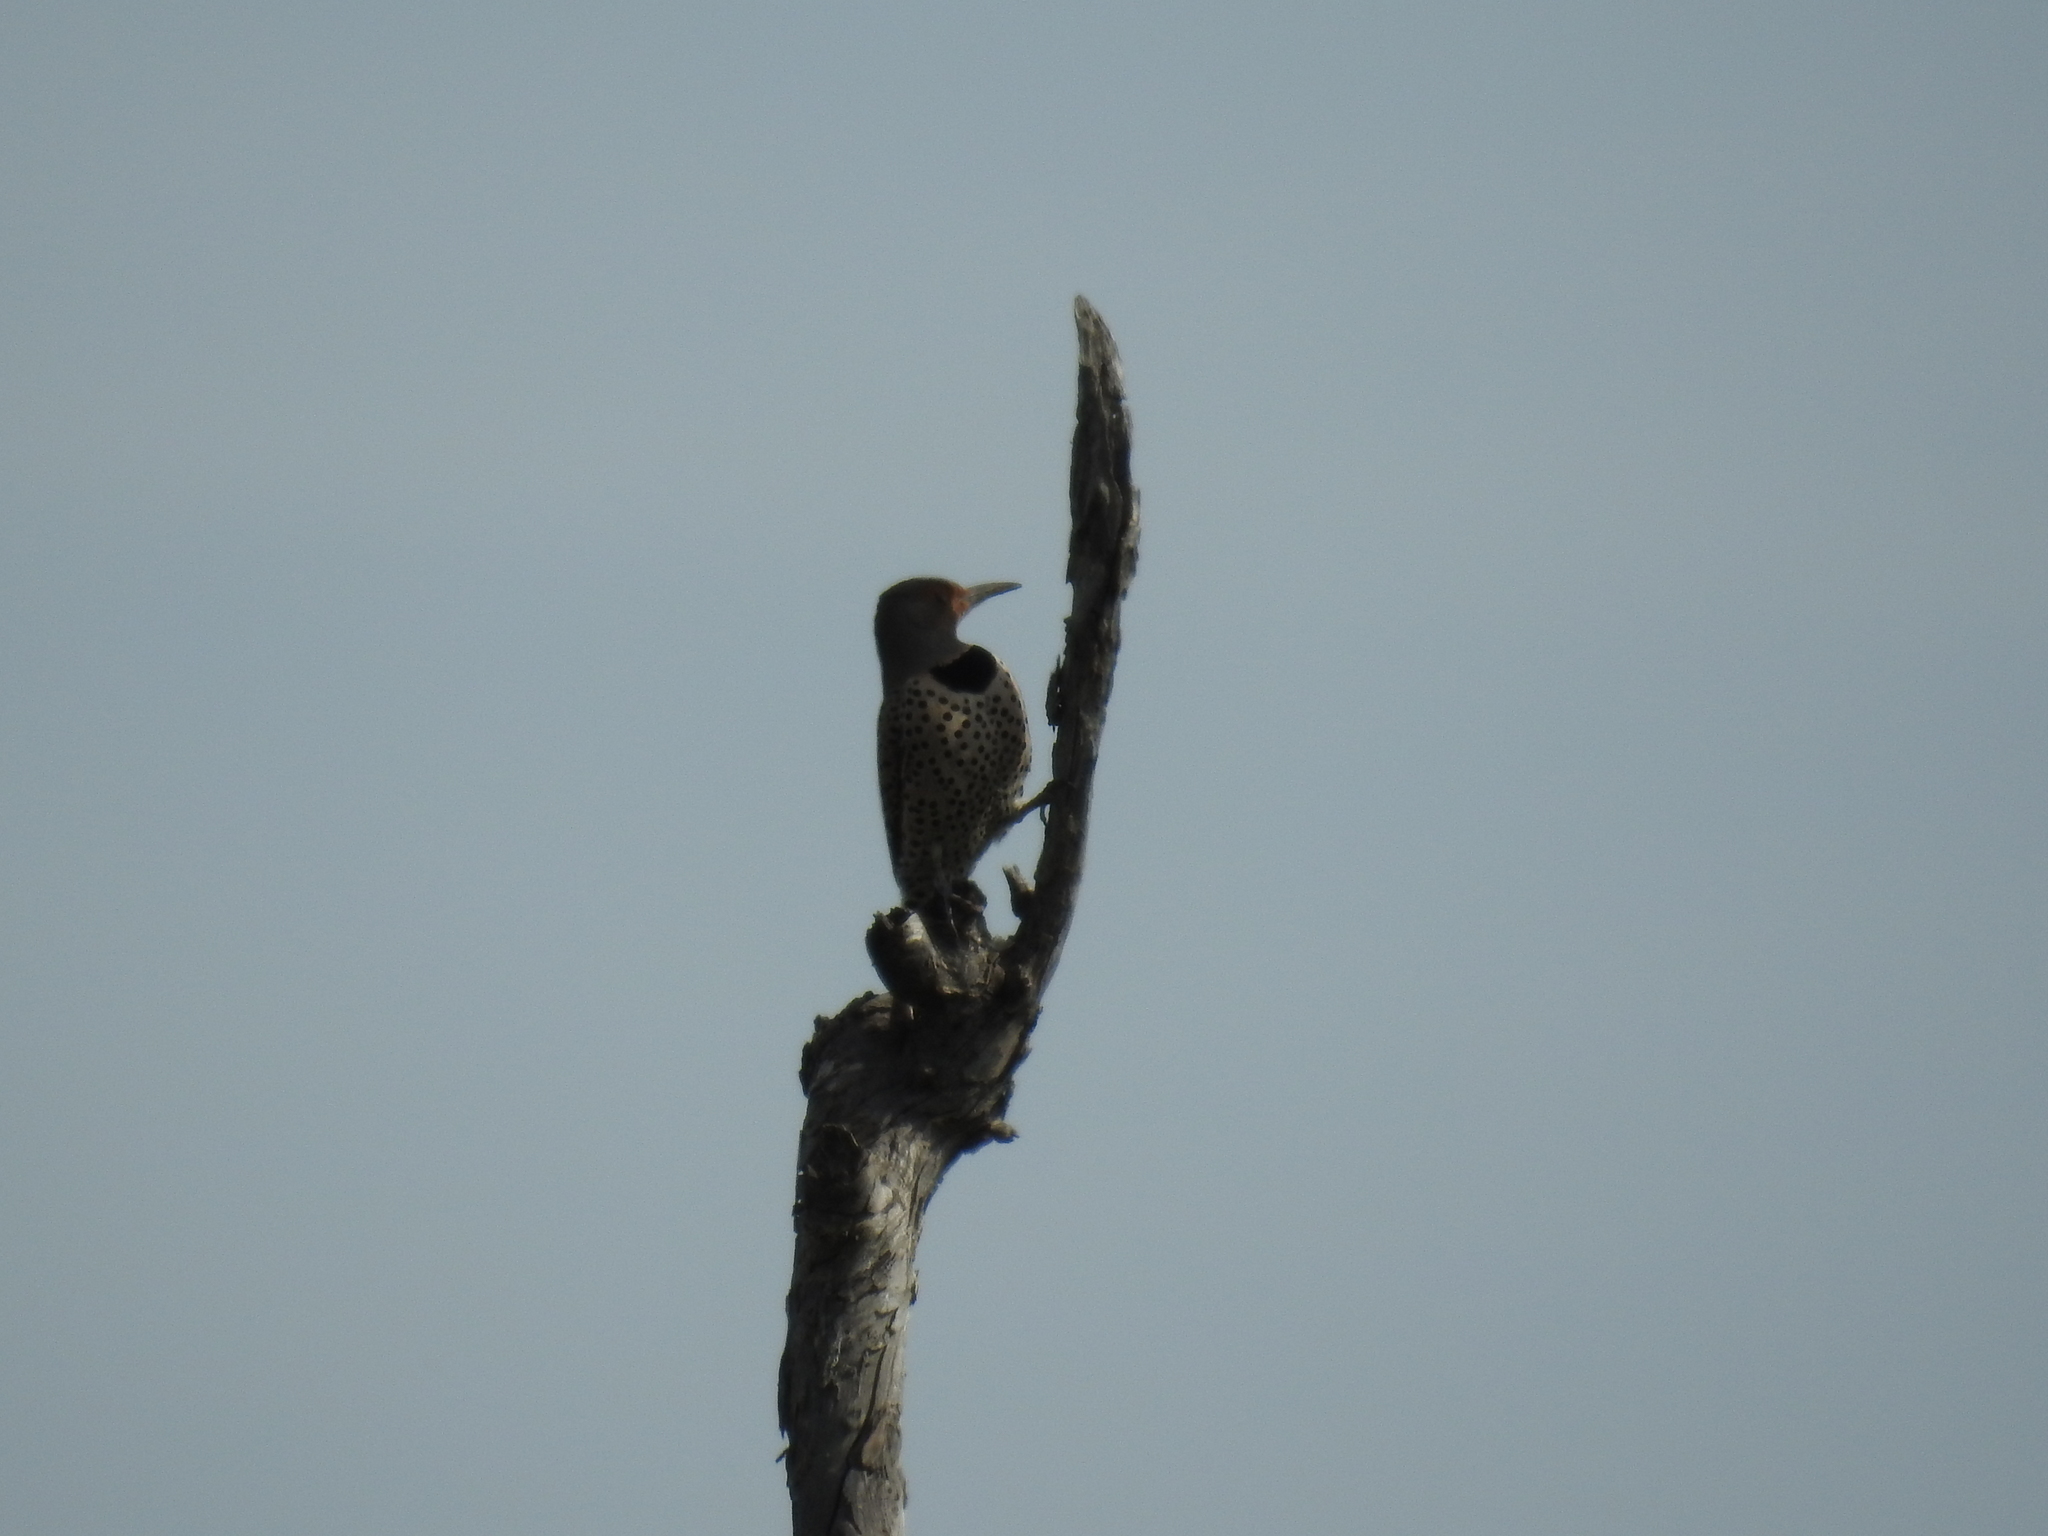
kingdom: Animalia
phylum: Chordata
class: Aves
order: Piciformes
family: Picidae
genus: Colaptes
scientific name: Colaptes auratus
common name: Northern flicker
